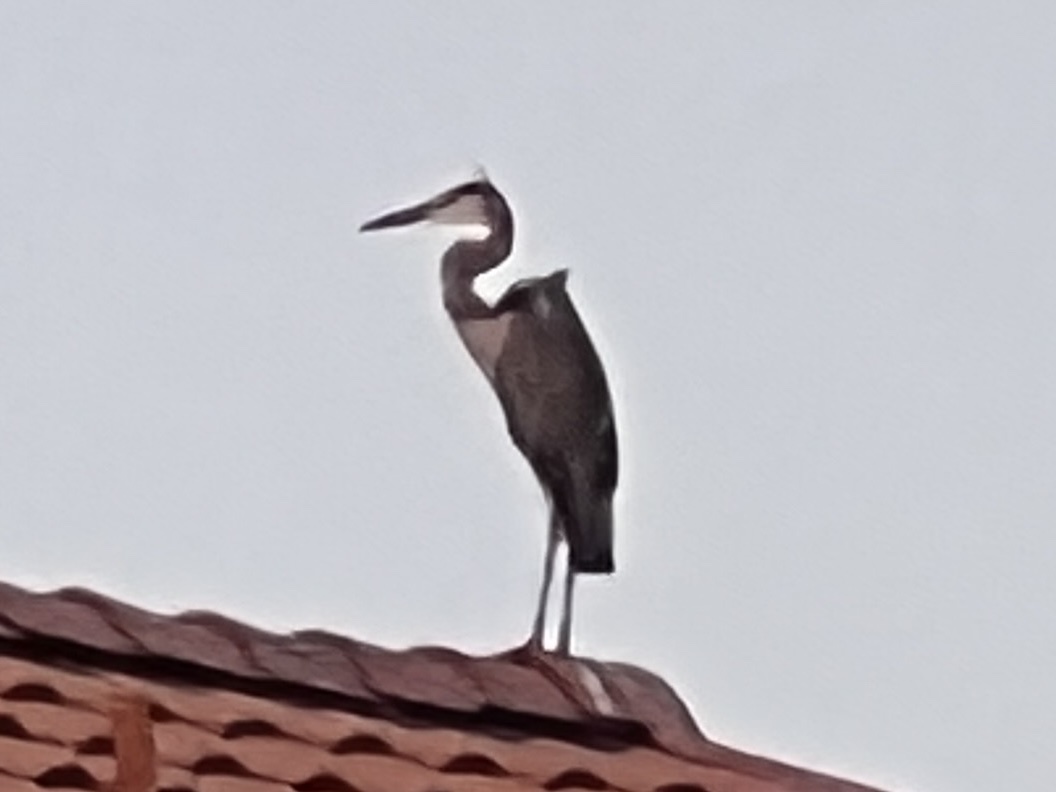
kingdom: Animalia
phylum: Chordata
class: Aves
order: Pelecaniformes
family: Ardeidae
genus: Ardea
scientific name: Ardea herodias
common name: Great blue heron
